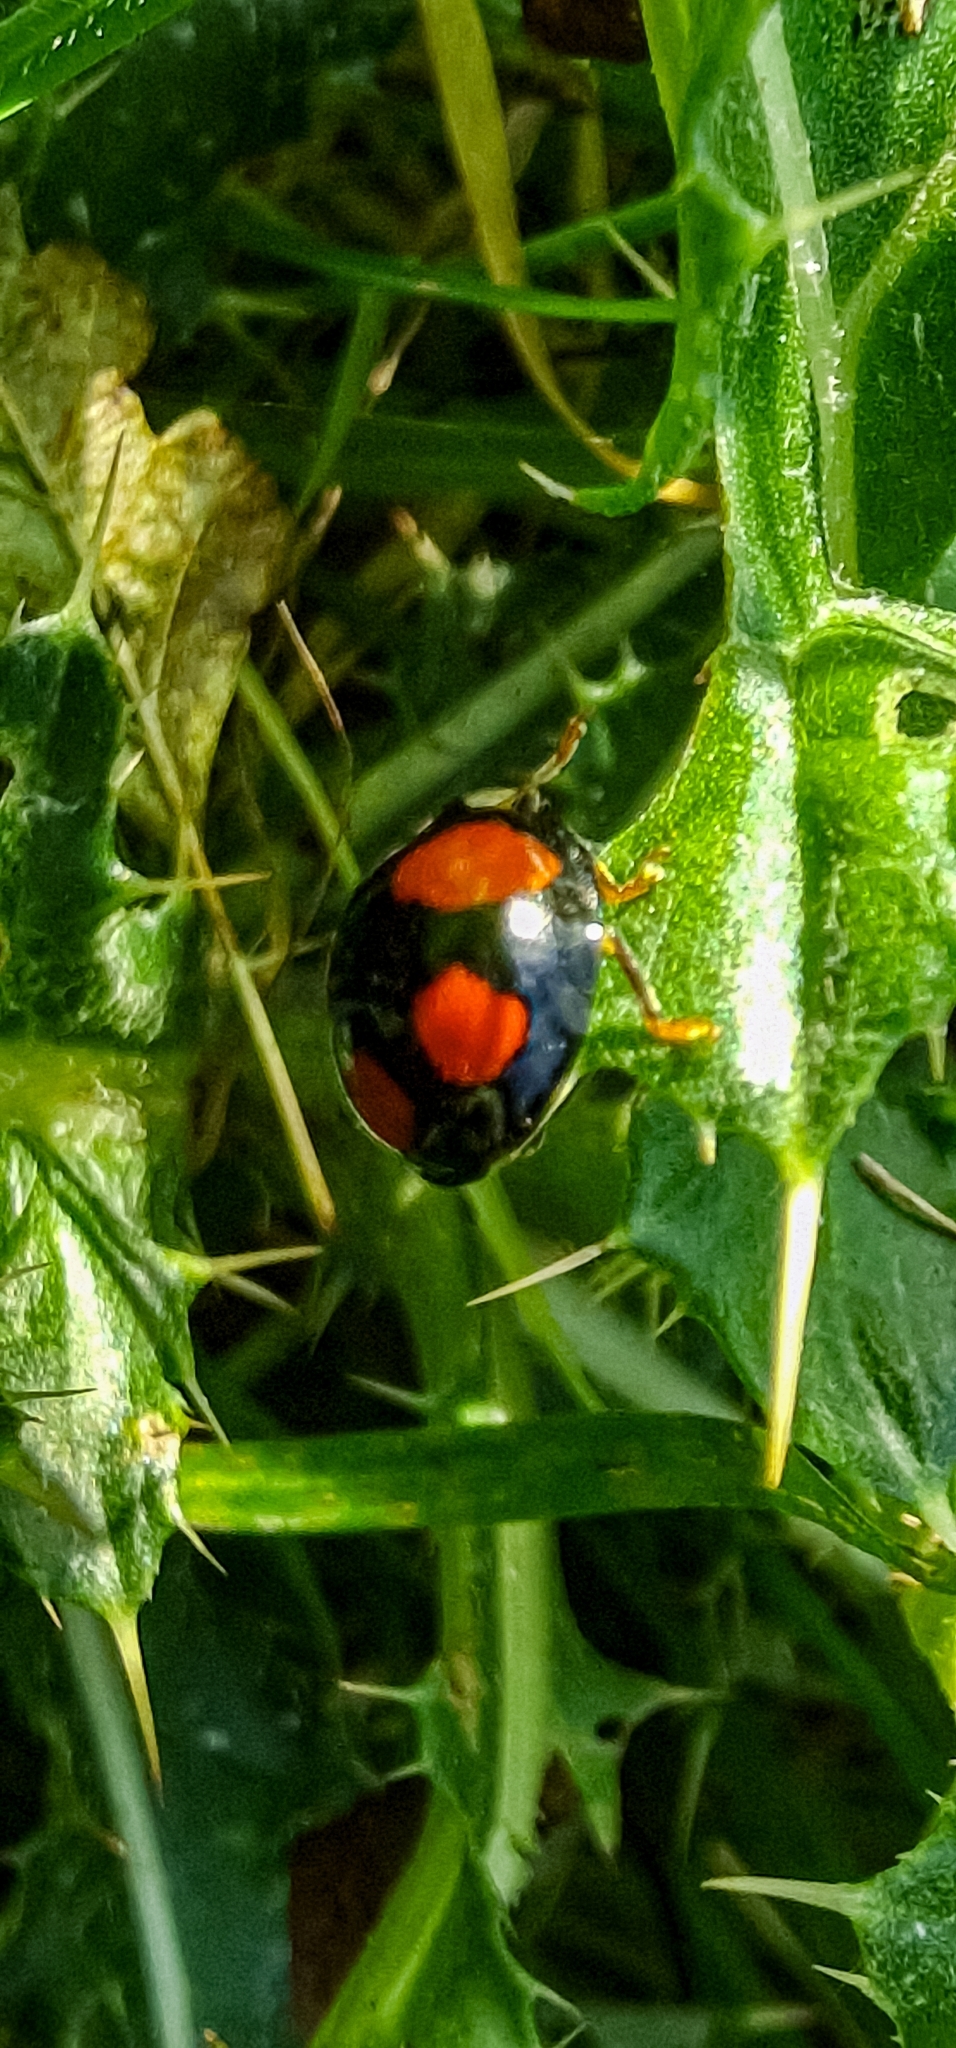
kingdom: Animalia
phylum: Arthropoda
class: Insecta
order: Coleoptera
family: Coccinellidae
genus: Harmonia
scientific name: Harmonia axyridis
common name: Harlequin ladybird
